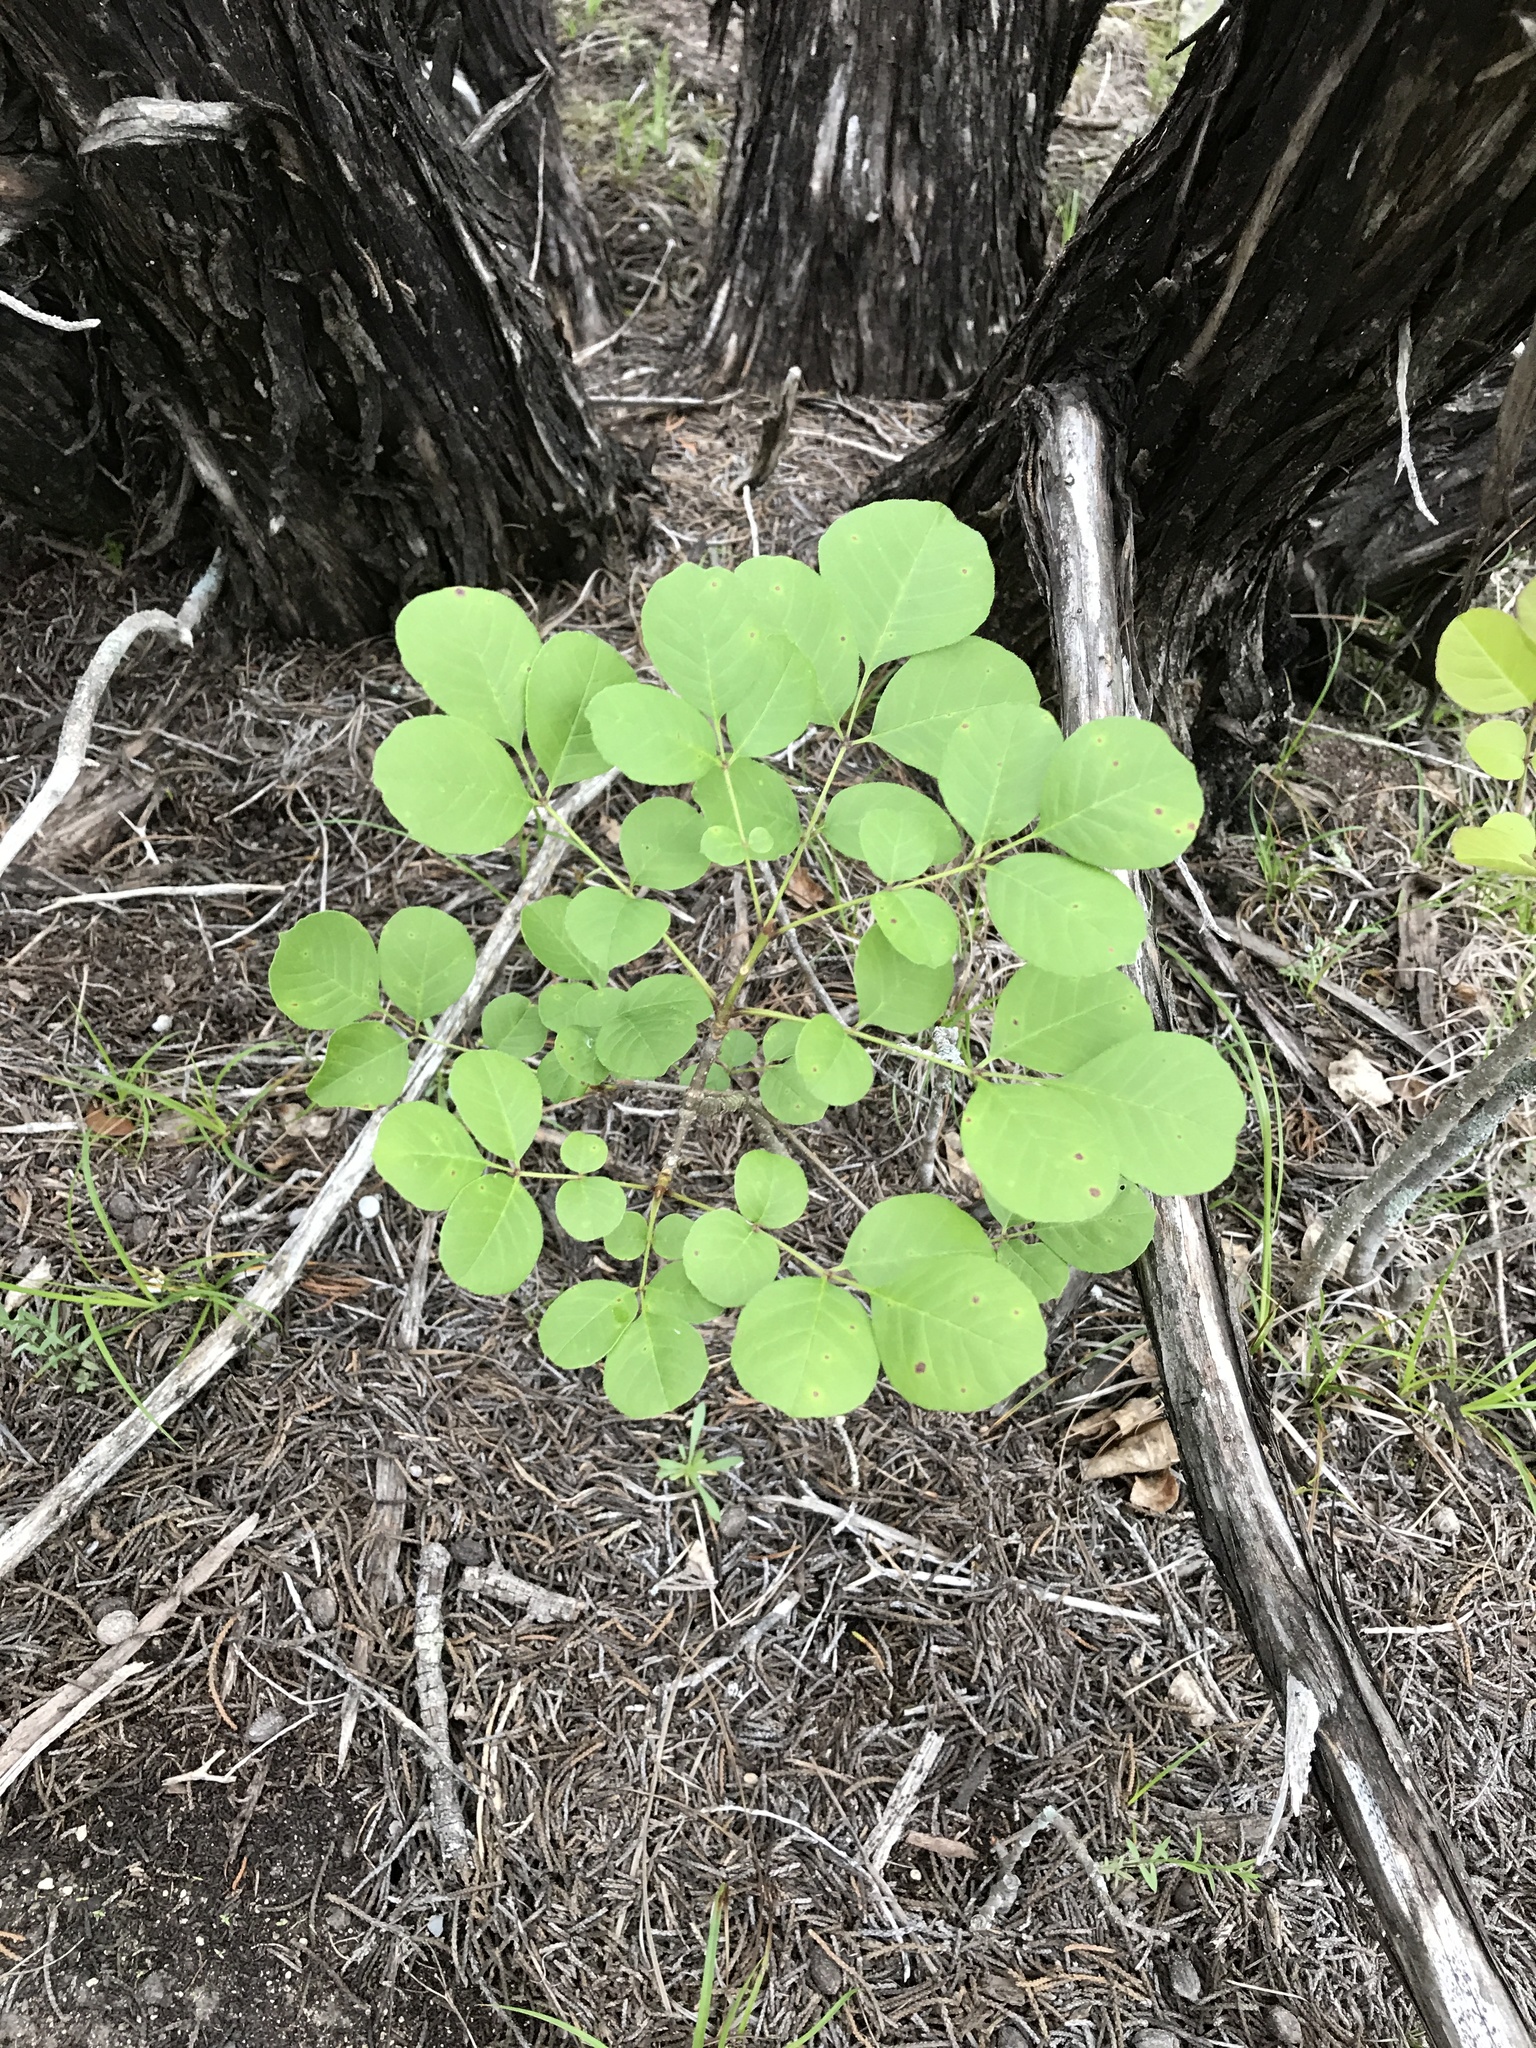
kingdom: Plantae
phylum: Tracheophyta
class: Magnoliopsida
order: Lamiales
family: Oleaceae
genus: Fraxinus
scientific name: Fraxinus albicans
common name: Texas ash
